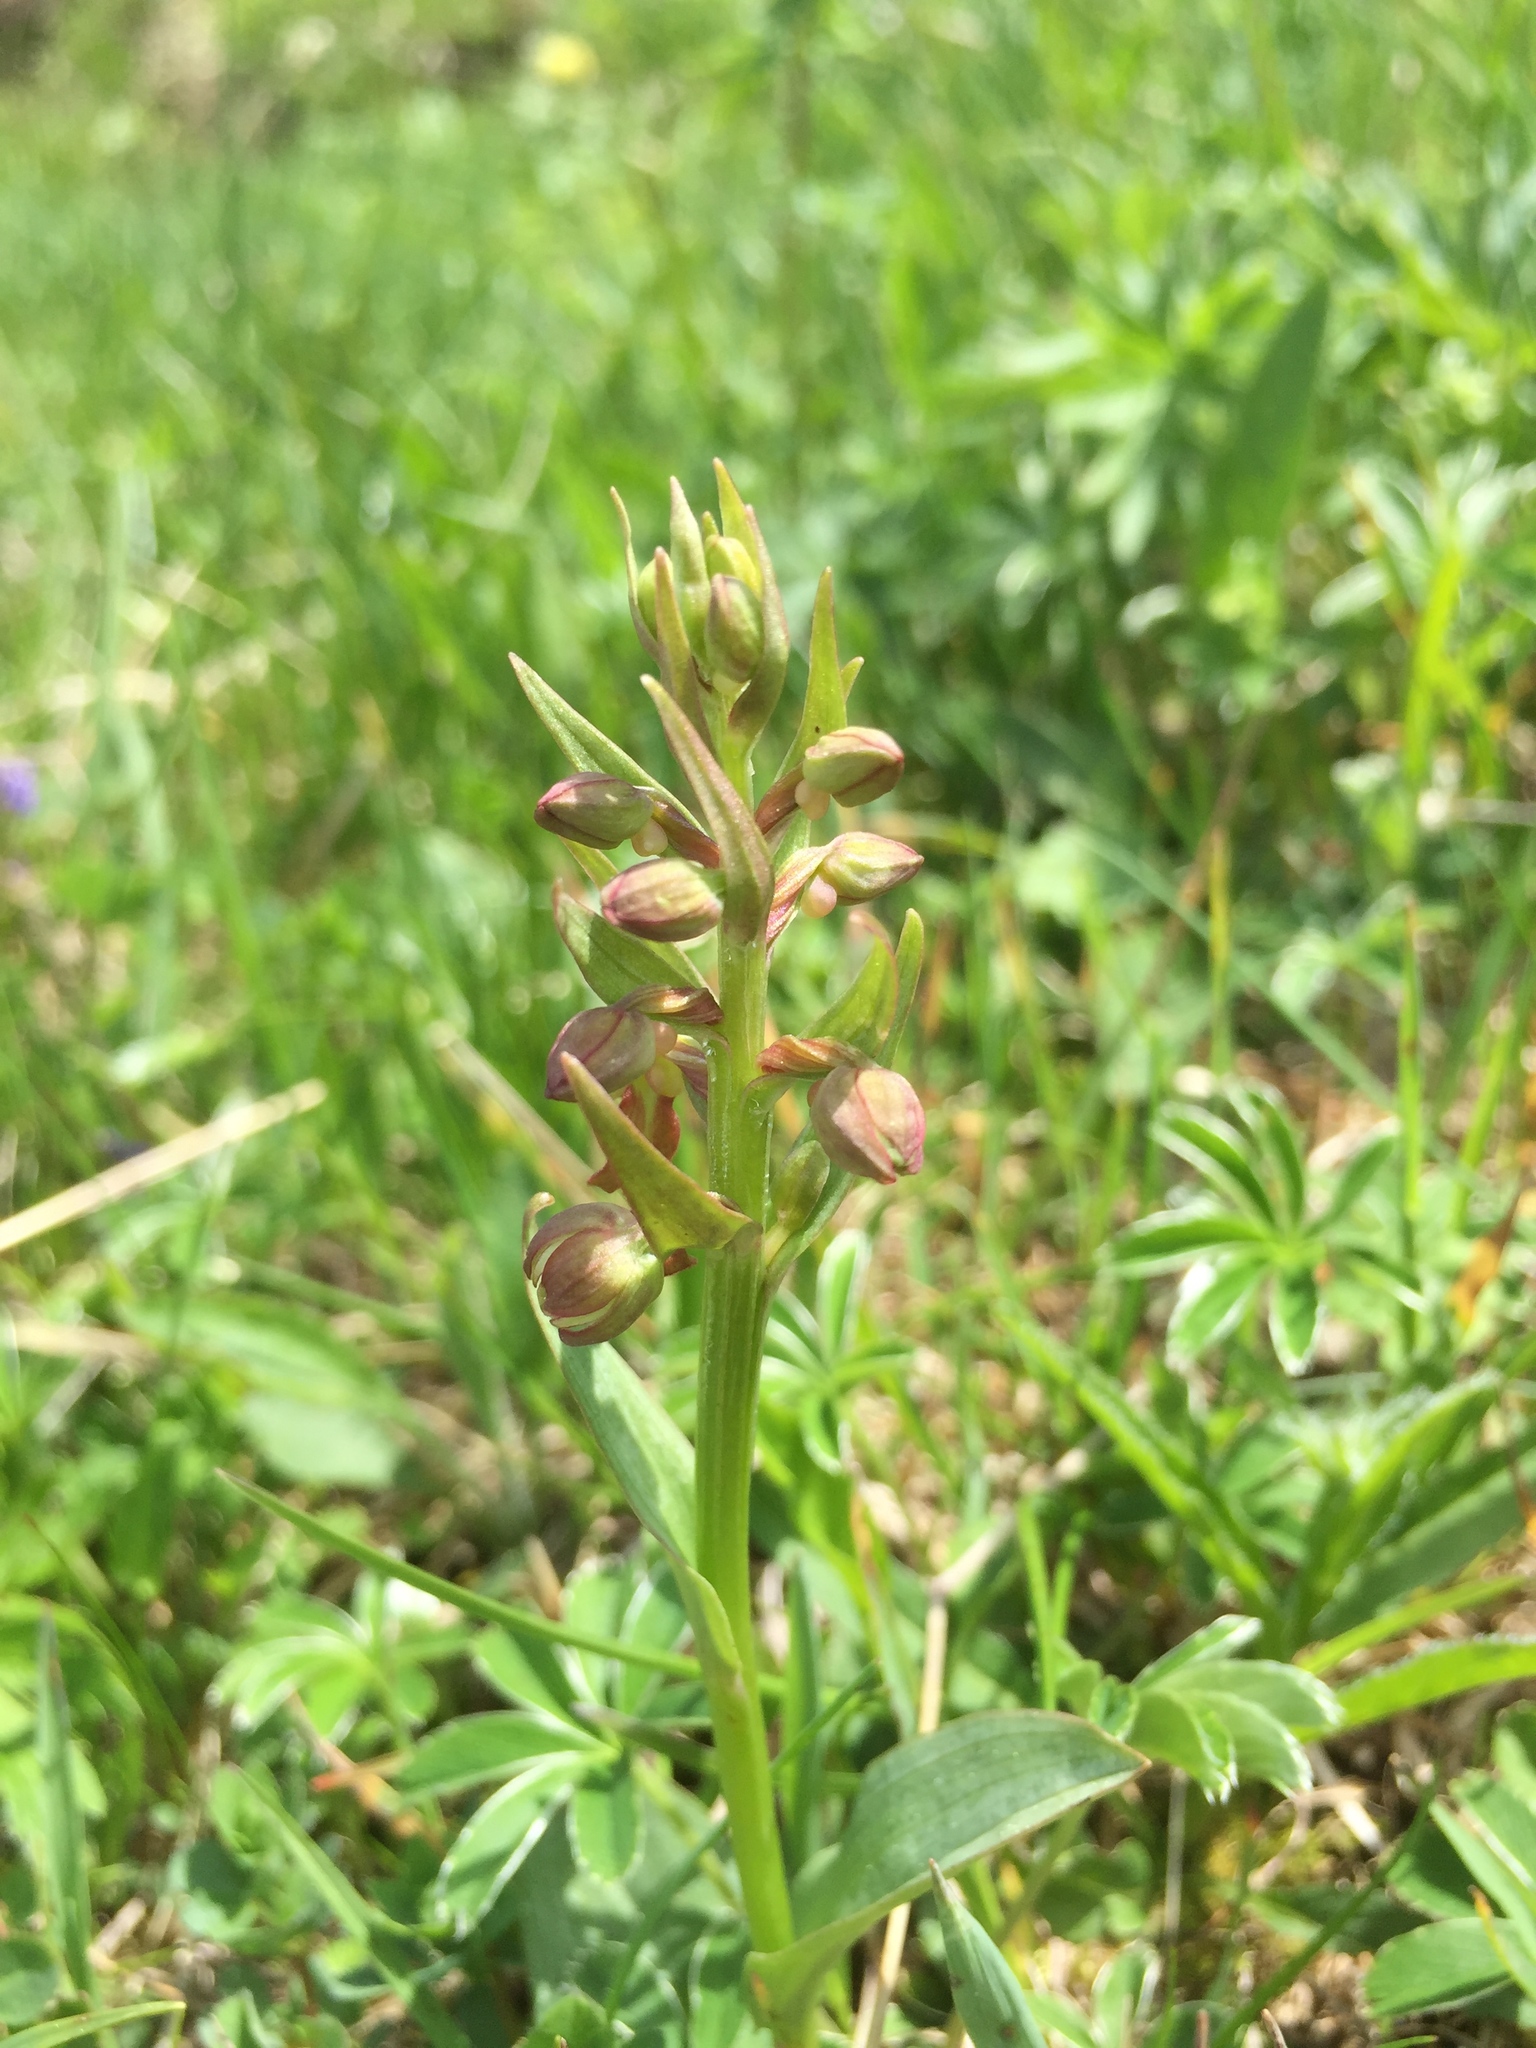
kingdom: Plantae
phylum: Tracheophyta
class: Liliopsida
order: Asparagales
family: Orchidaceae
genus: Dactylorhiza
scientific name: Dactylorhiza viridis
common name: Longbract frog orchid
